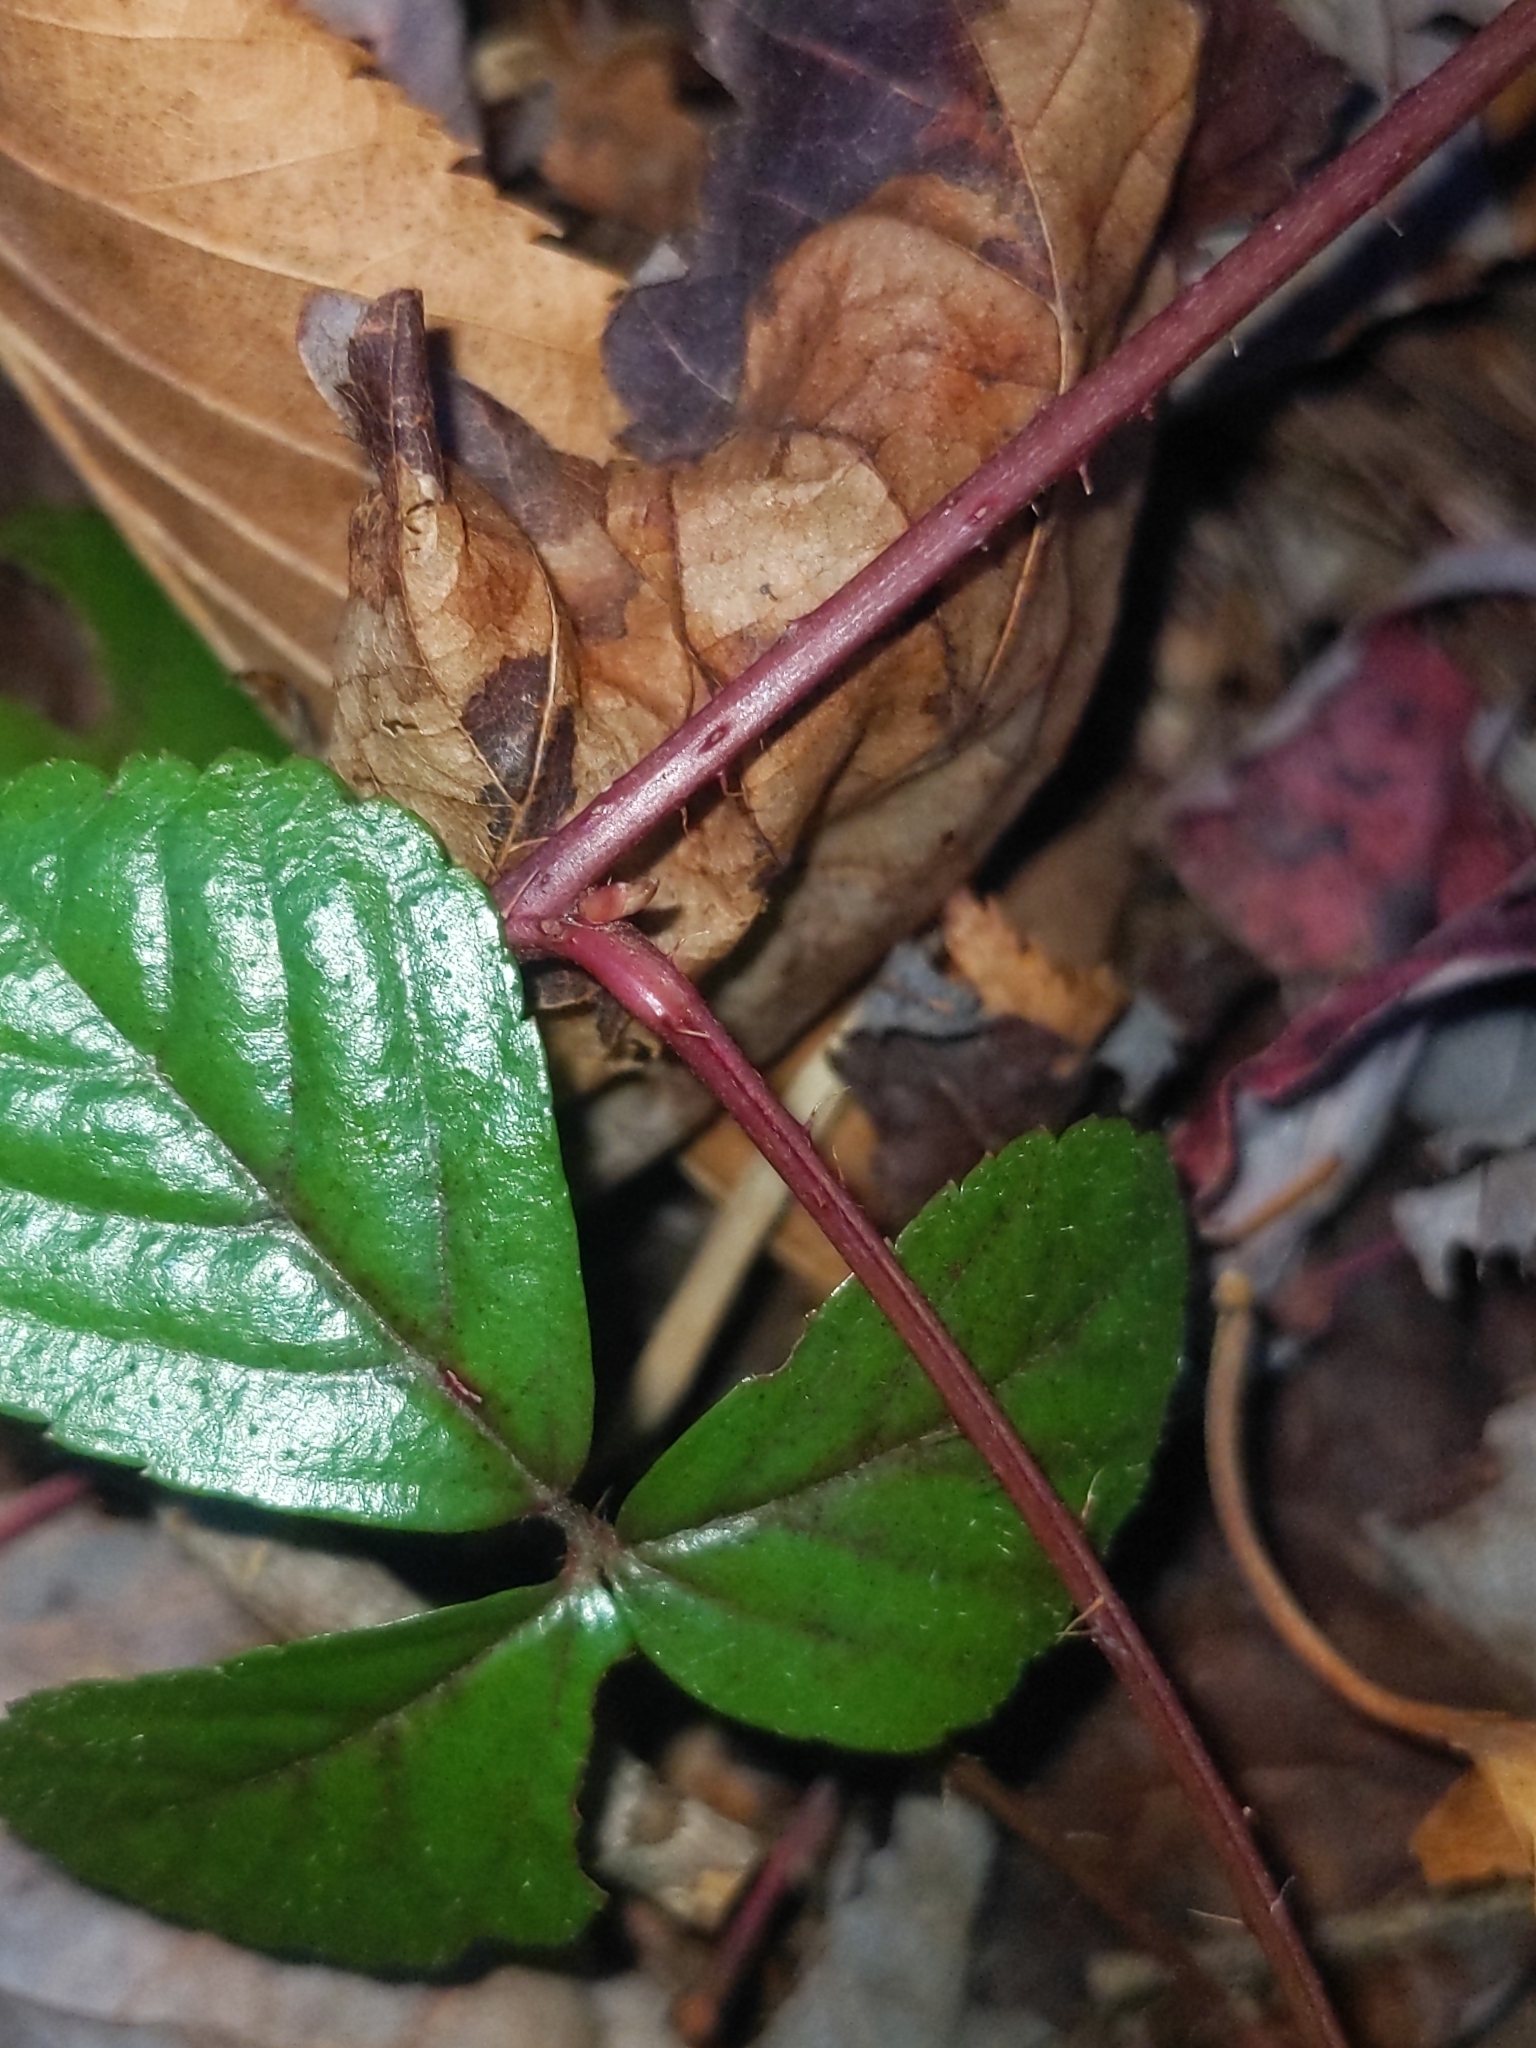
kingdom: Plantae
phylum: Tracheophyta
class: Magnoliopsida
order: Rosales
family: Rosaceae
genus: Rubus
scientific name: Rubus hispidus
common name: Running blackberry
